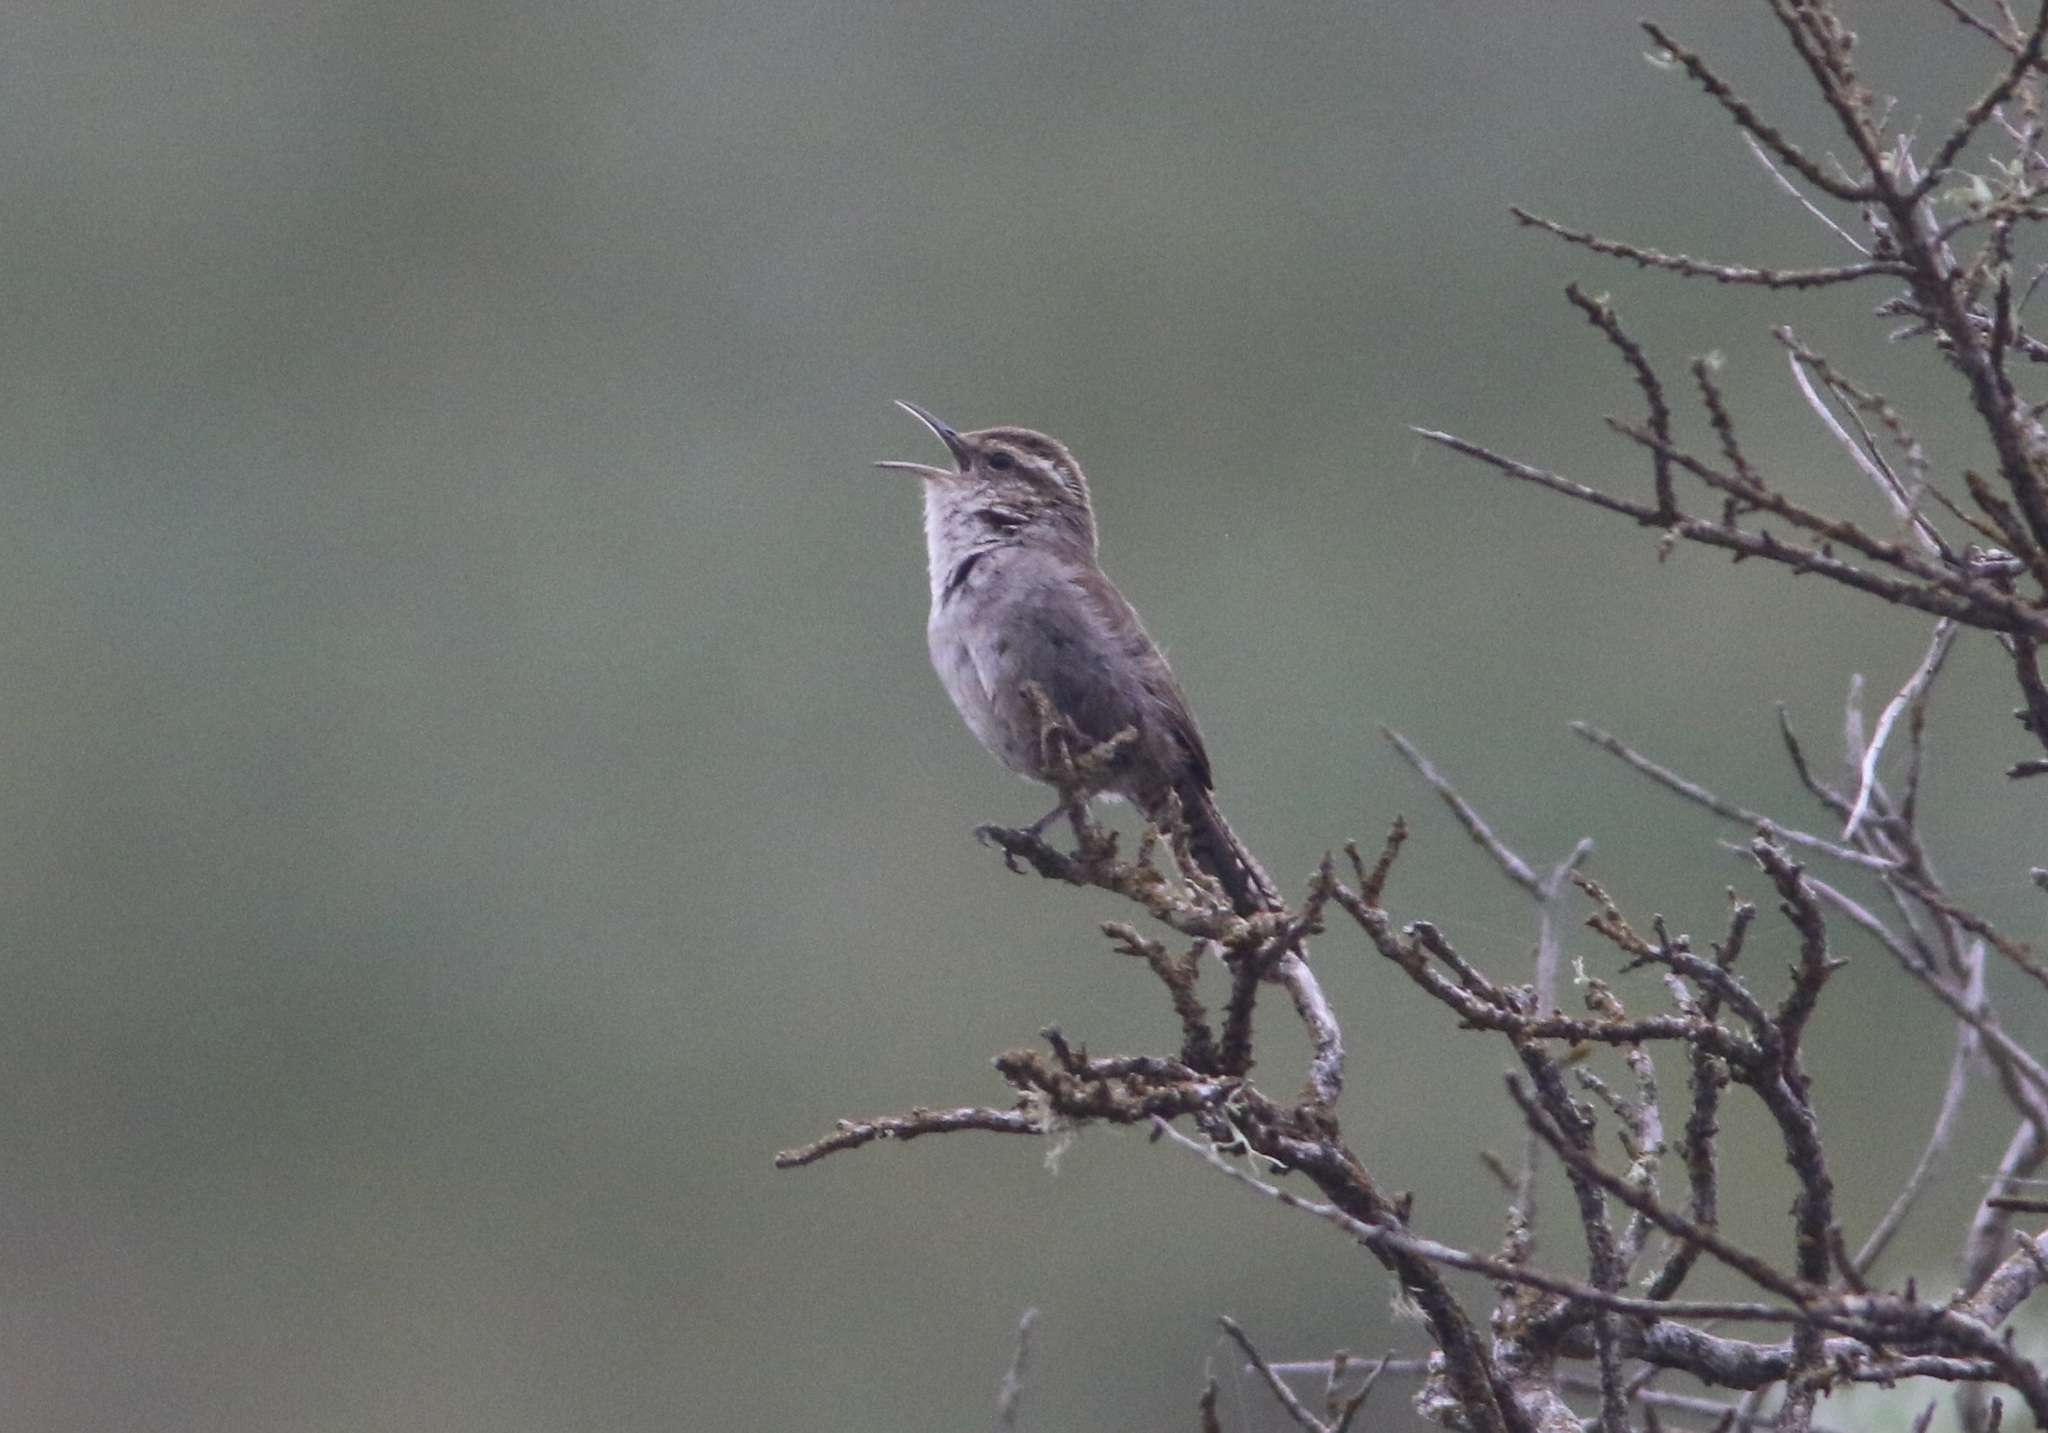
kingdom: Animalia
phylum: Chordata
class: Aves
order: Passeriformes
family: Troglodytidae
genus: Thryomanes
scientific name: Thryomanes bewickii
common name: Bewick's wren
